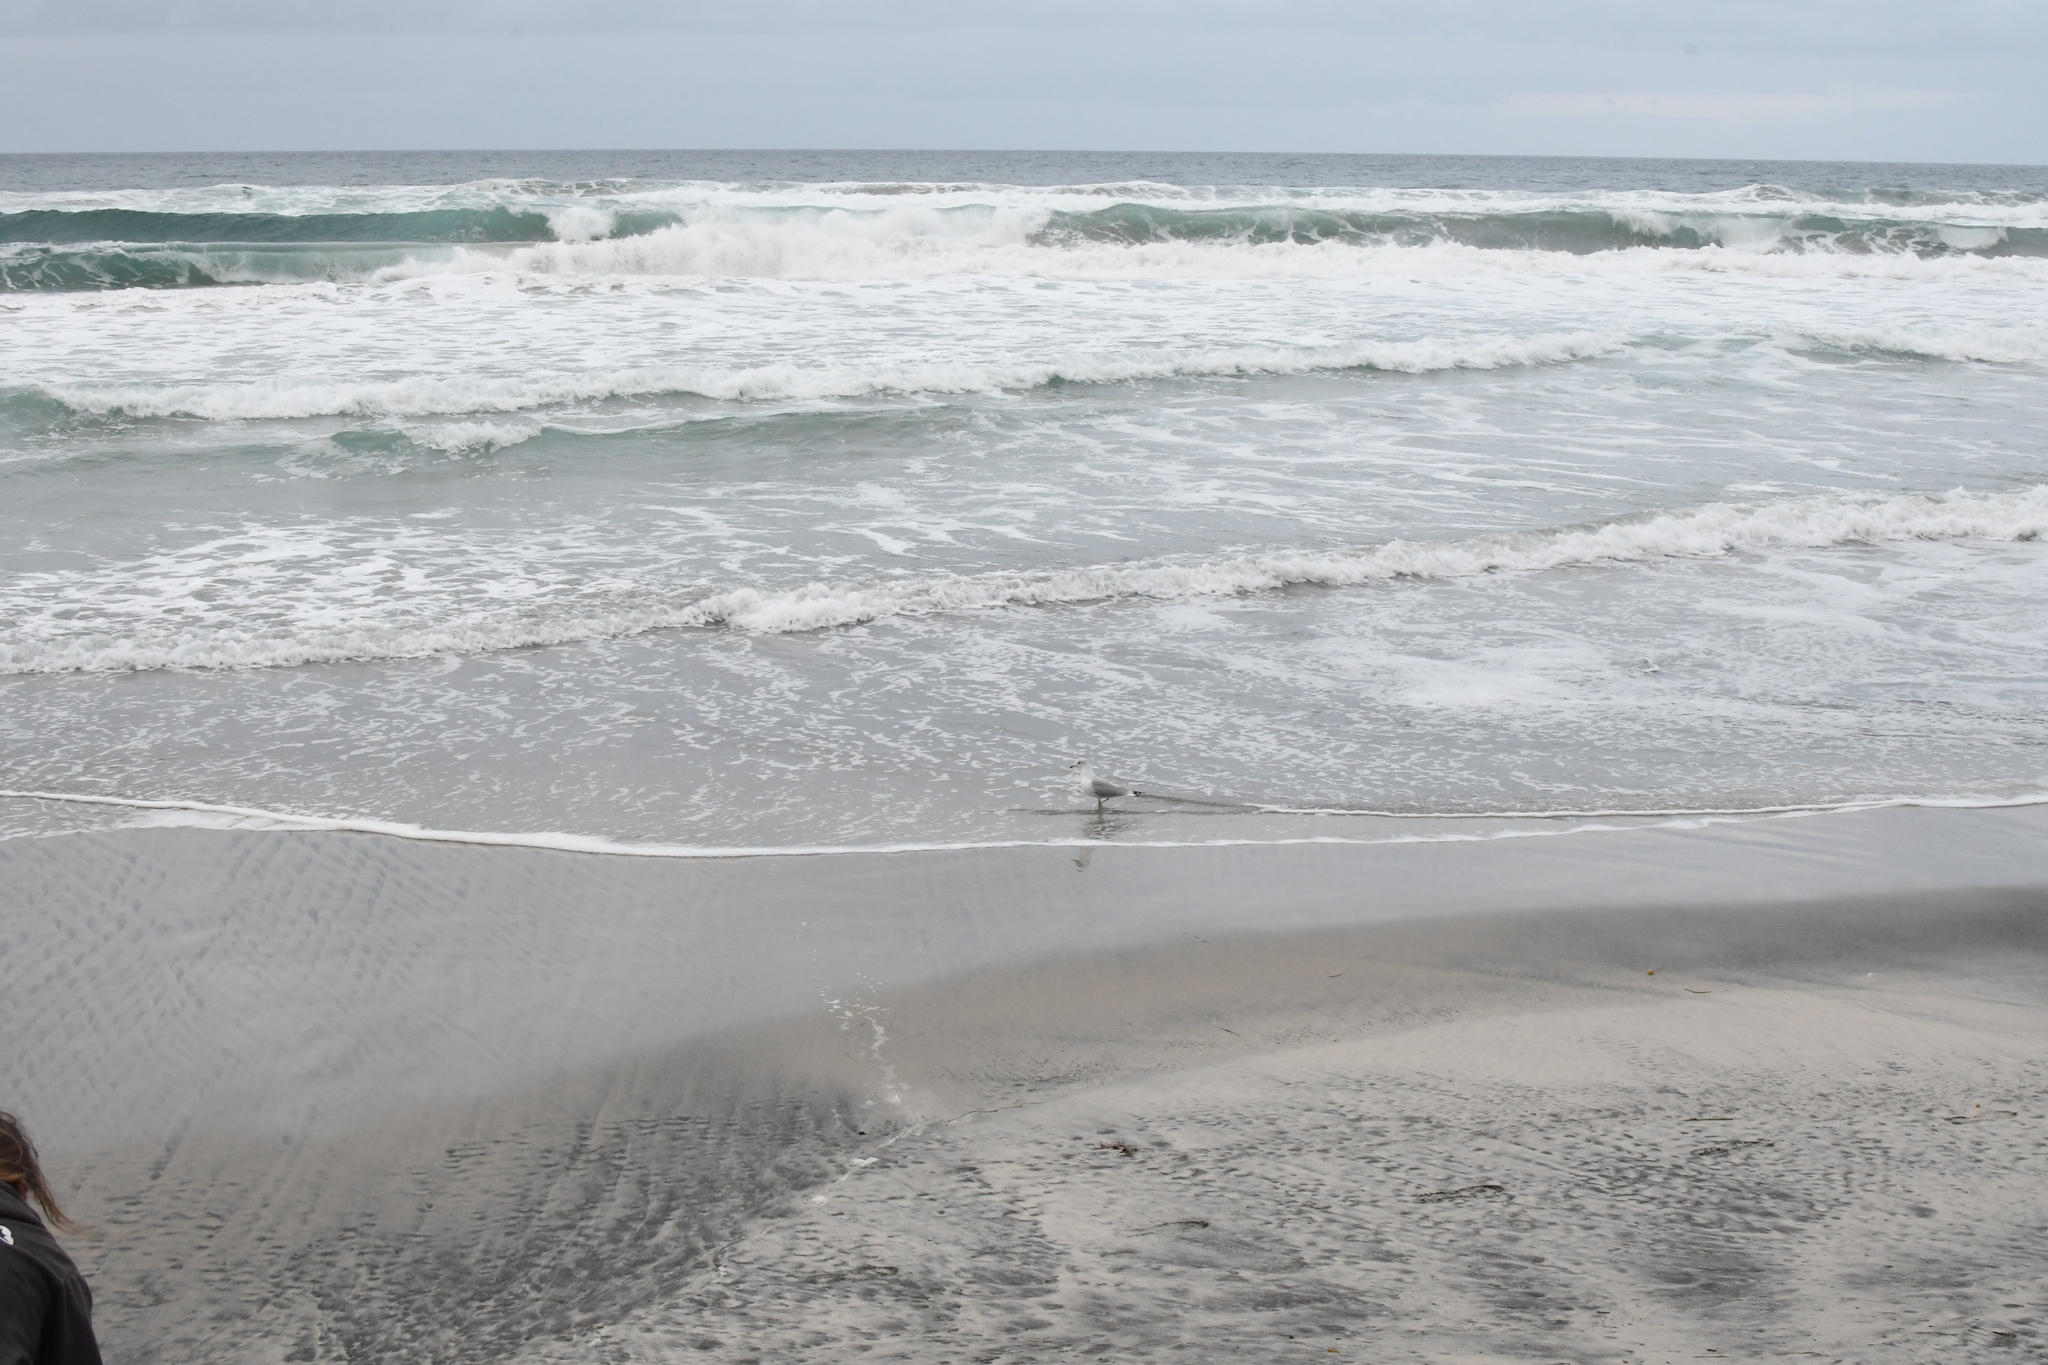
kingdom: Animalia
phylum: Chordata
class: Aves
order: Charadriiformes
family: Laridae
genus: Larus
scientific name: Larus delawarensis
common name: Ring-billed gull
